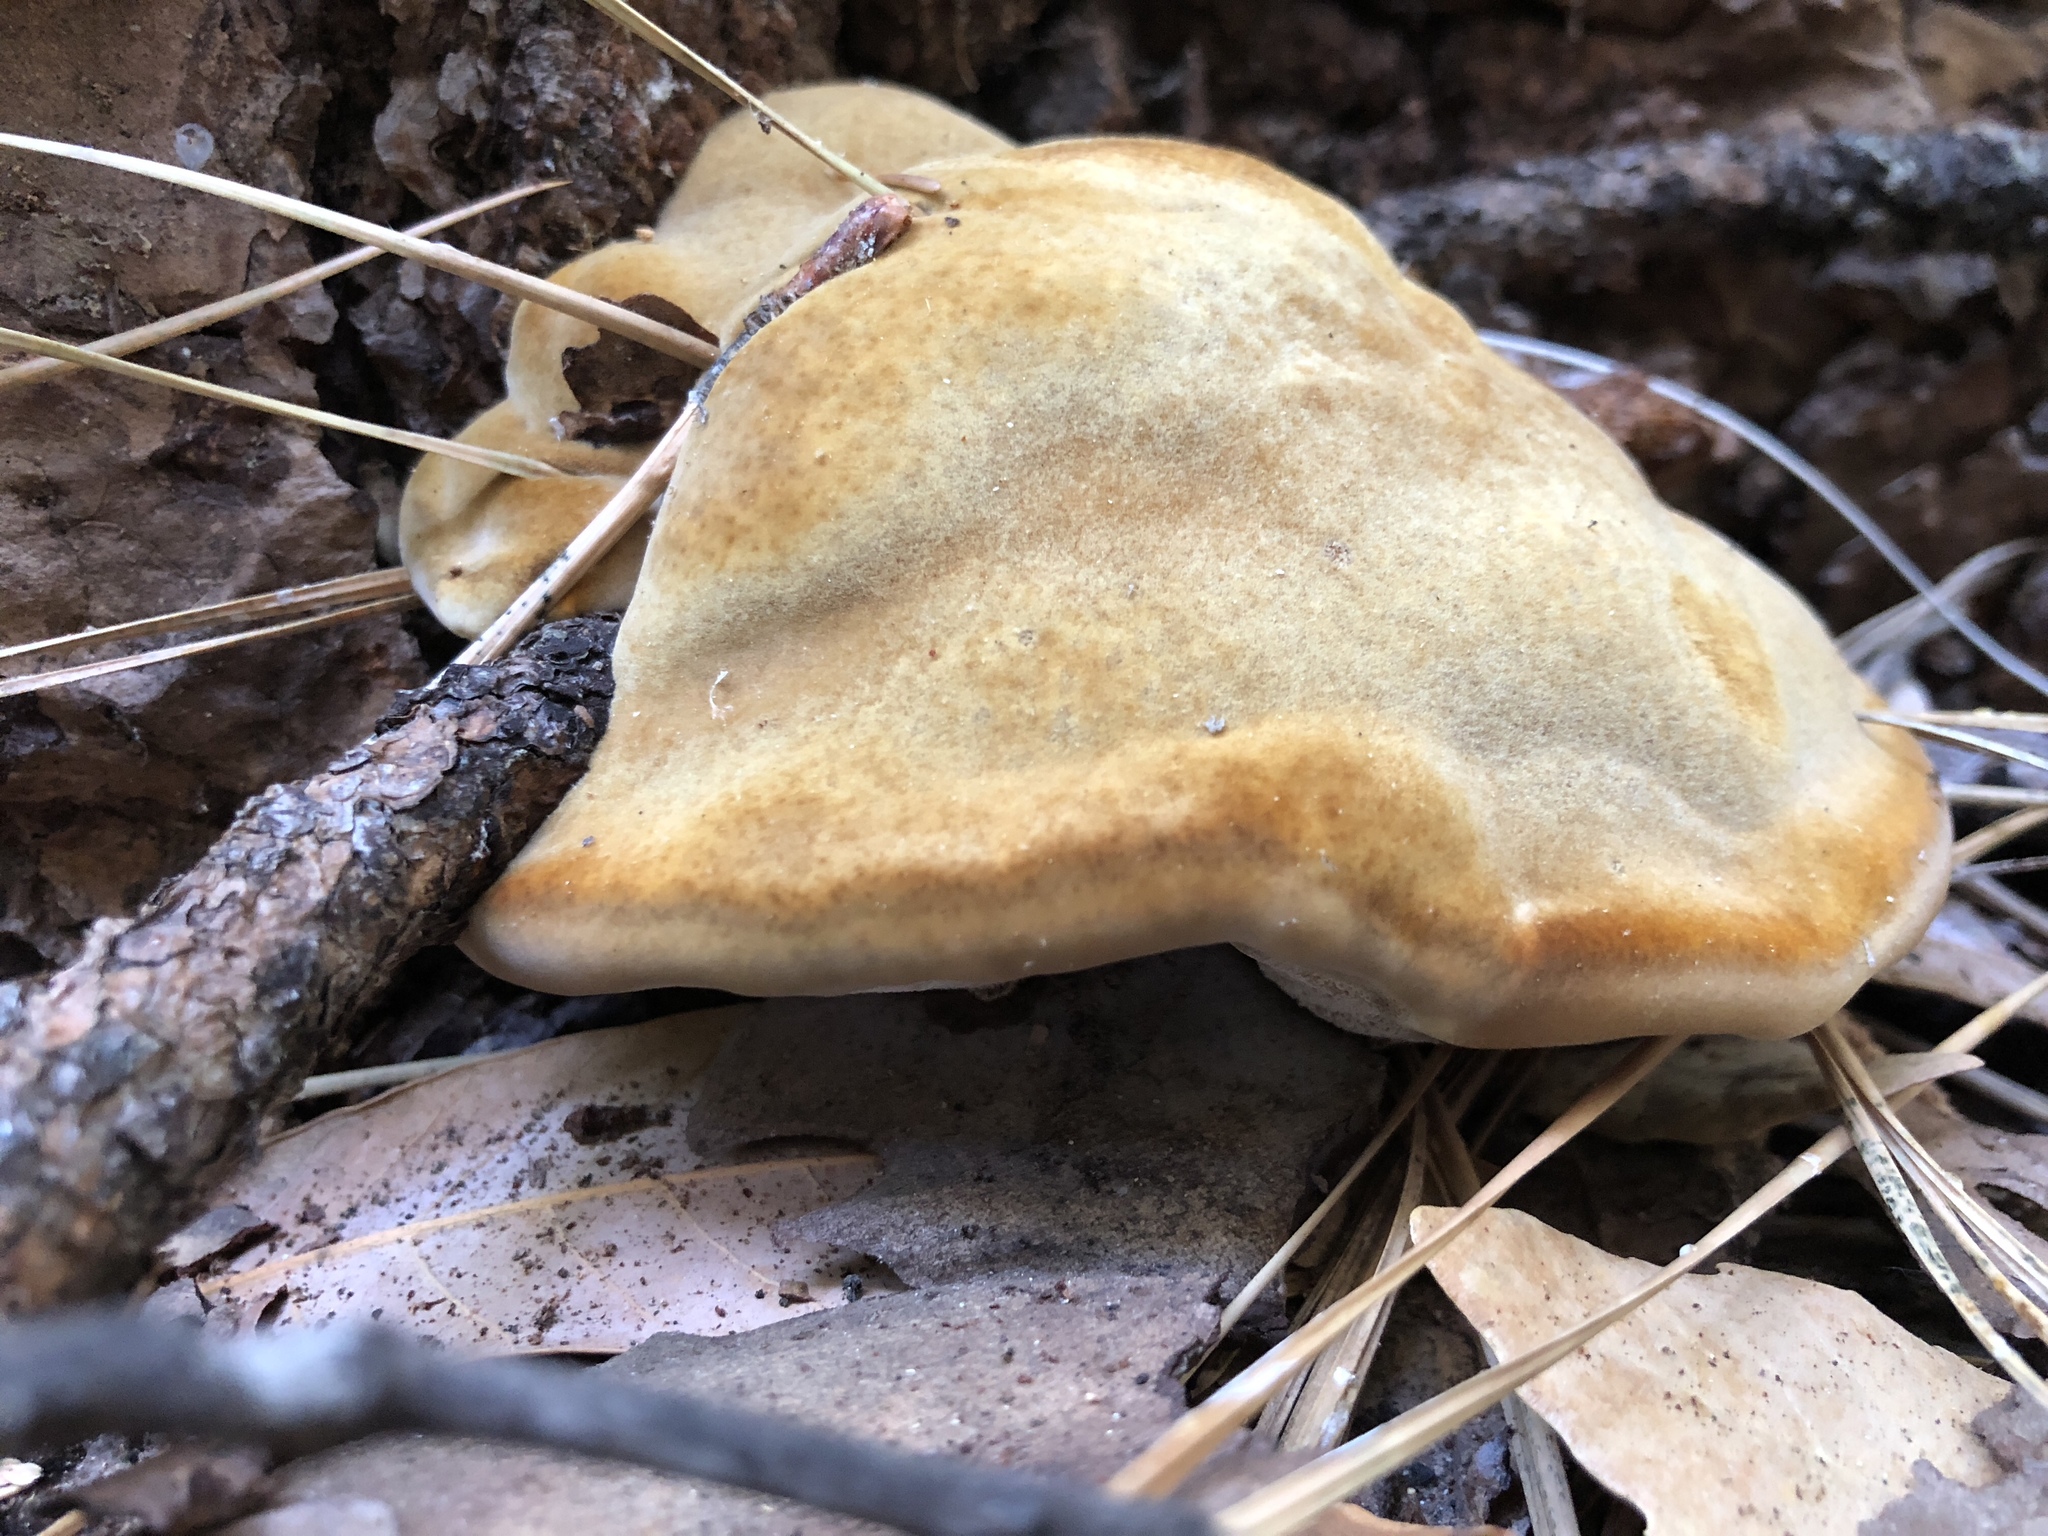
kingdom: Fungi
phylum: Basidiomycota
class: Agaricomycetes
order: Polyporales
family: Laetiporaceae
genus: Phaeolus
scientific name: Phaeolus schweinitzii
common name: Dyer's mazegill
